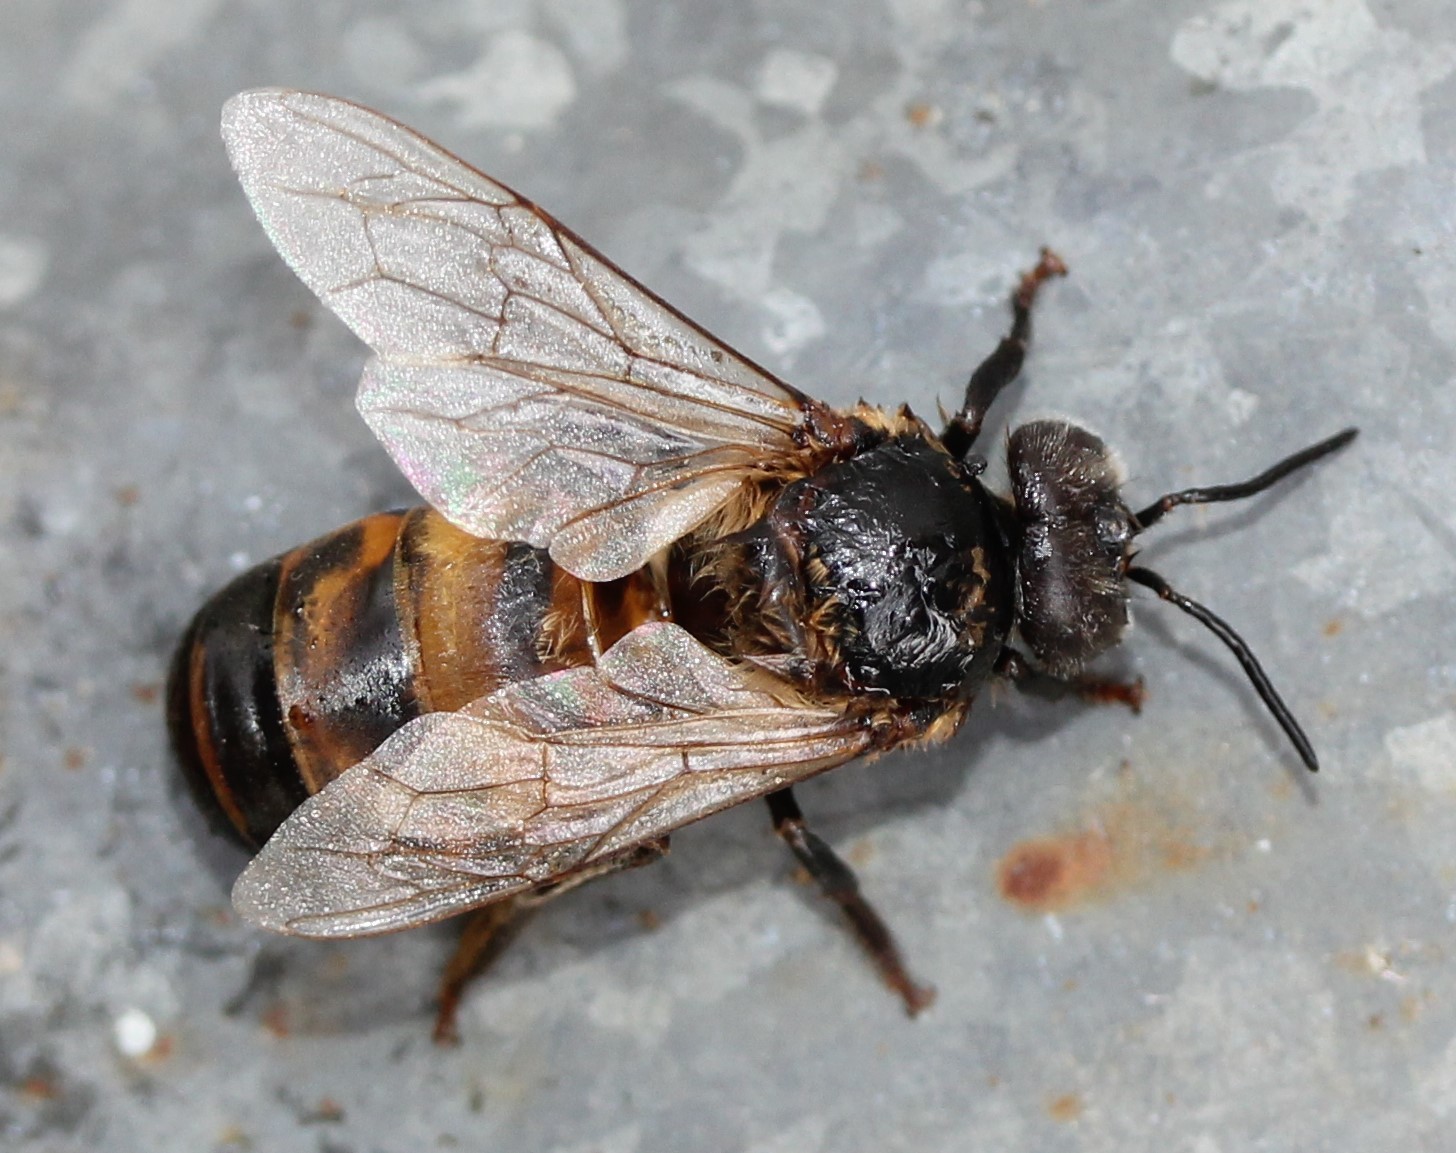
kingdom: Animalia
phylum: Arthropoda
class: Insecta
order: Hymenoptera
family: Apidae
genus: Apis
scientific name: Apis mellifera
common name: Honey bee
